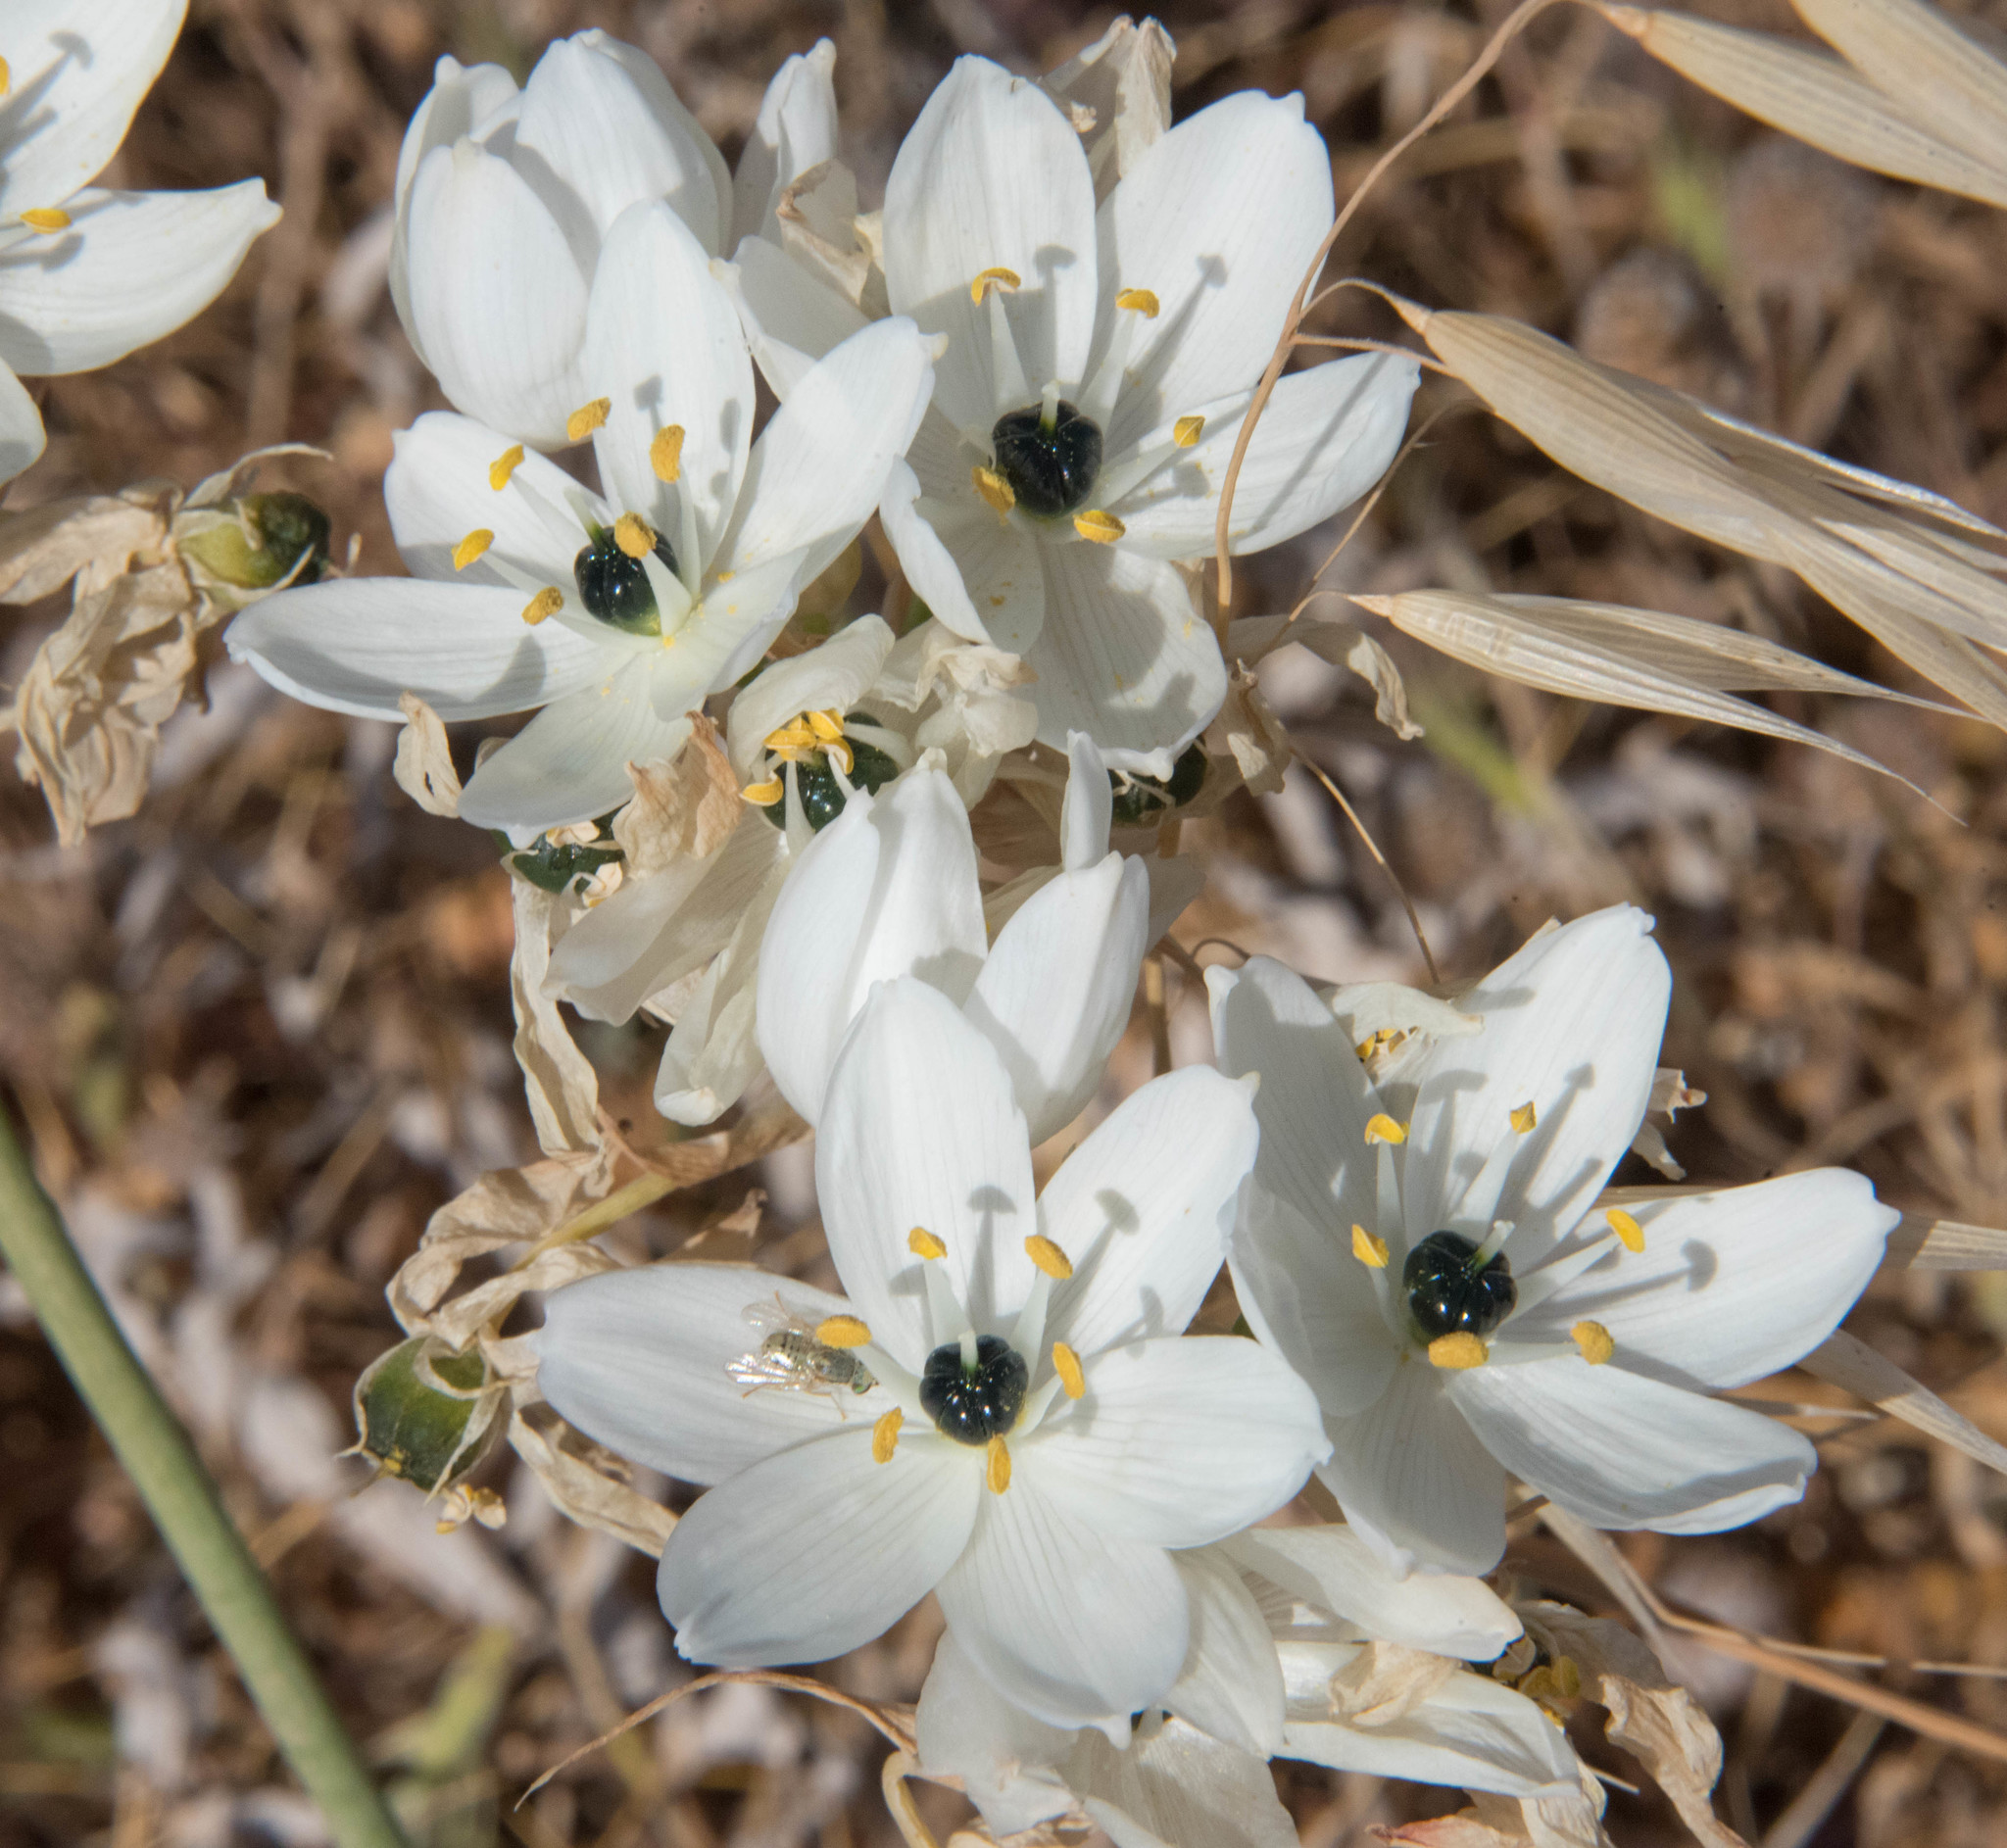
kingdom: Plantae
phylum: Tracheophyta
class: Liliopsida
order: Asparagales
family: Asparagaceae
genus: Ornithogalum
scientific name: Ornithogalum arabicum
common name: Arabian starflower
